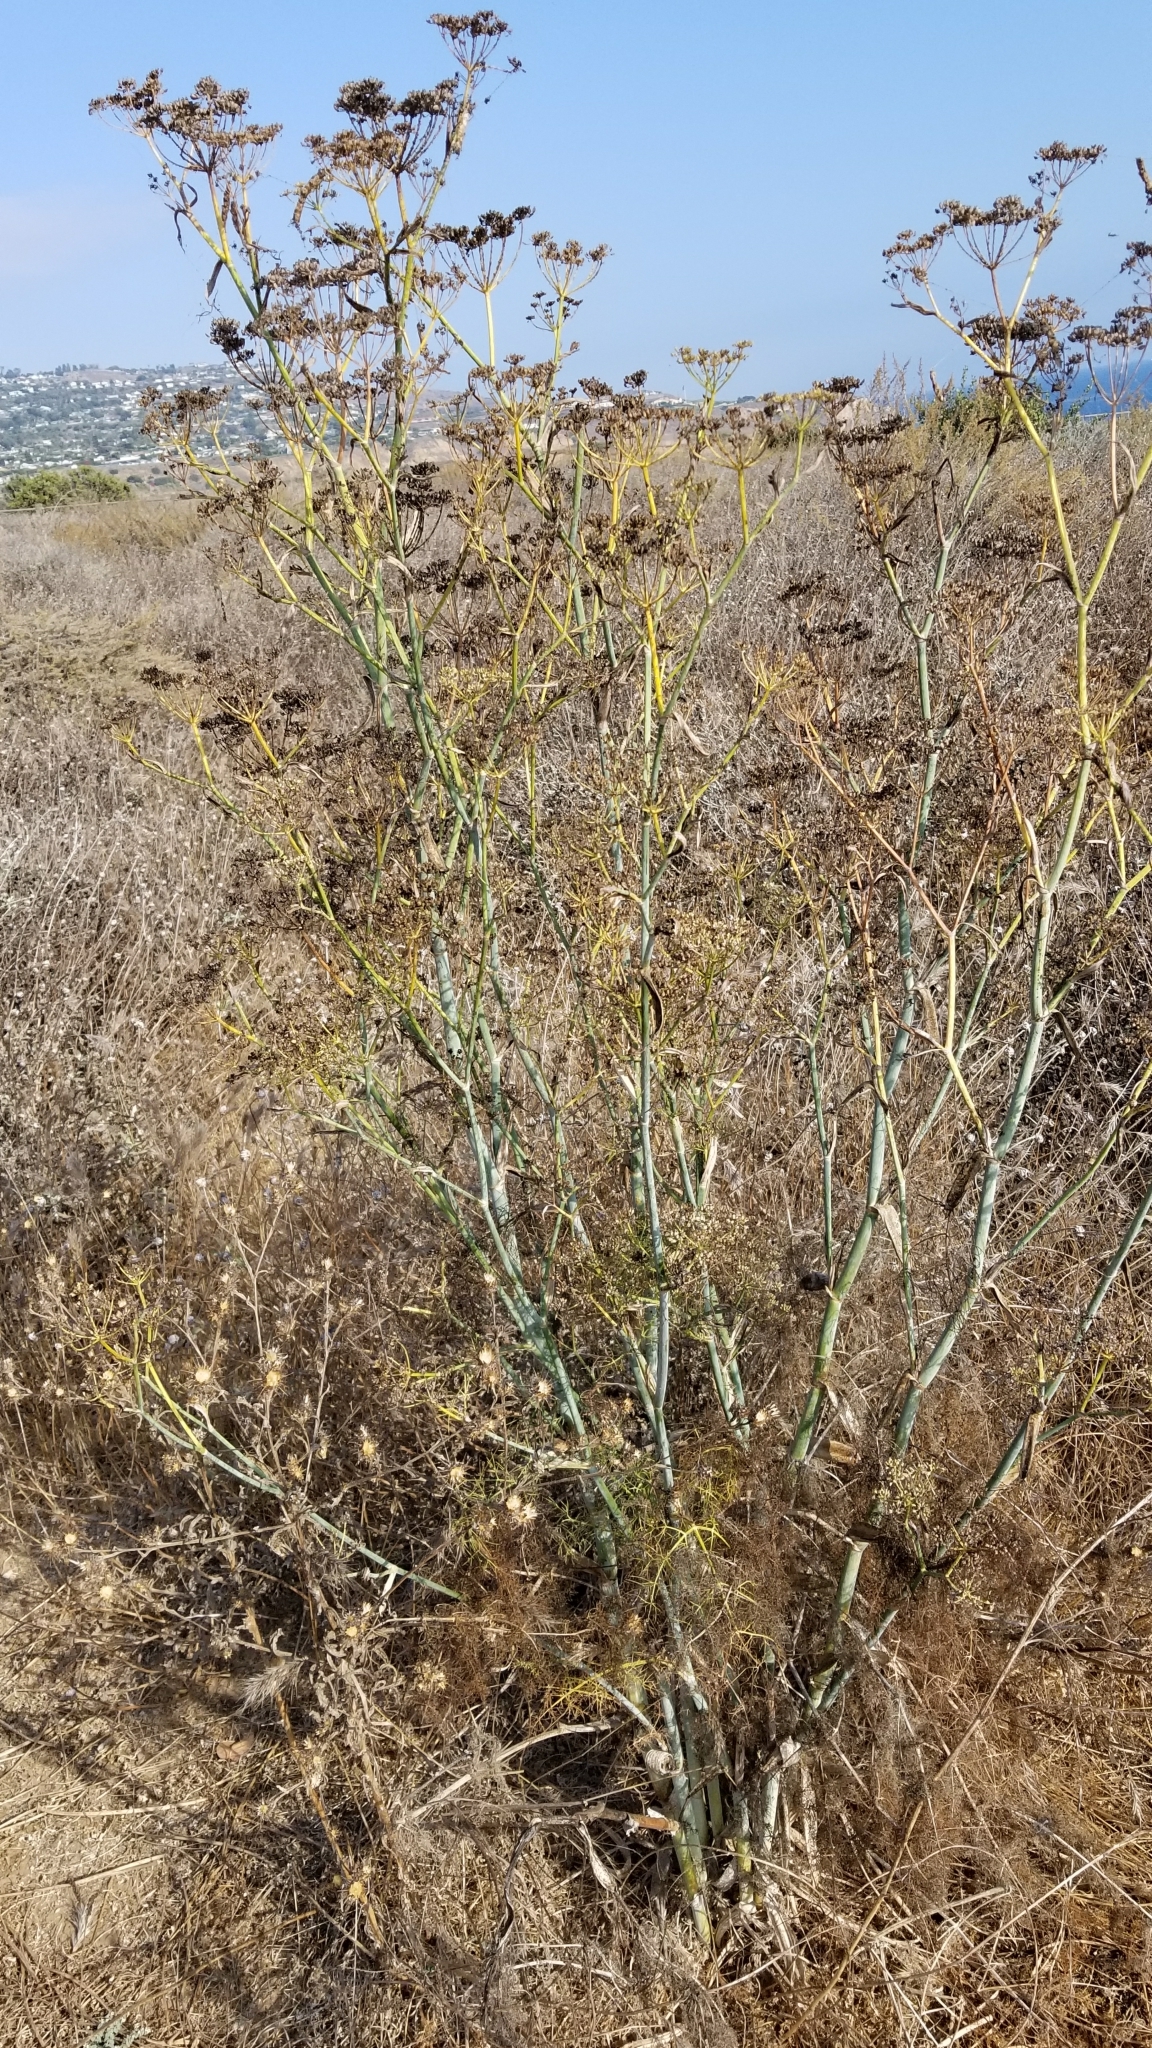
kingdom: Plantae
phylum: Tracheophyta
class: Magnoliopsida
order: Apiales
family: Apiaceae
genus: Foeniculum
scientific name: Foeniculum vulgare
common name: Fennel
